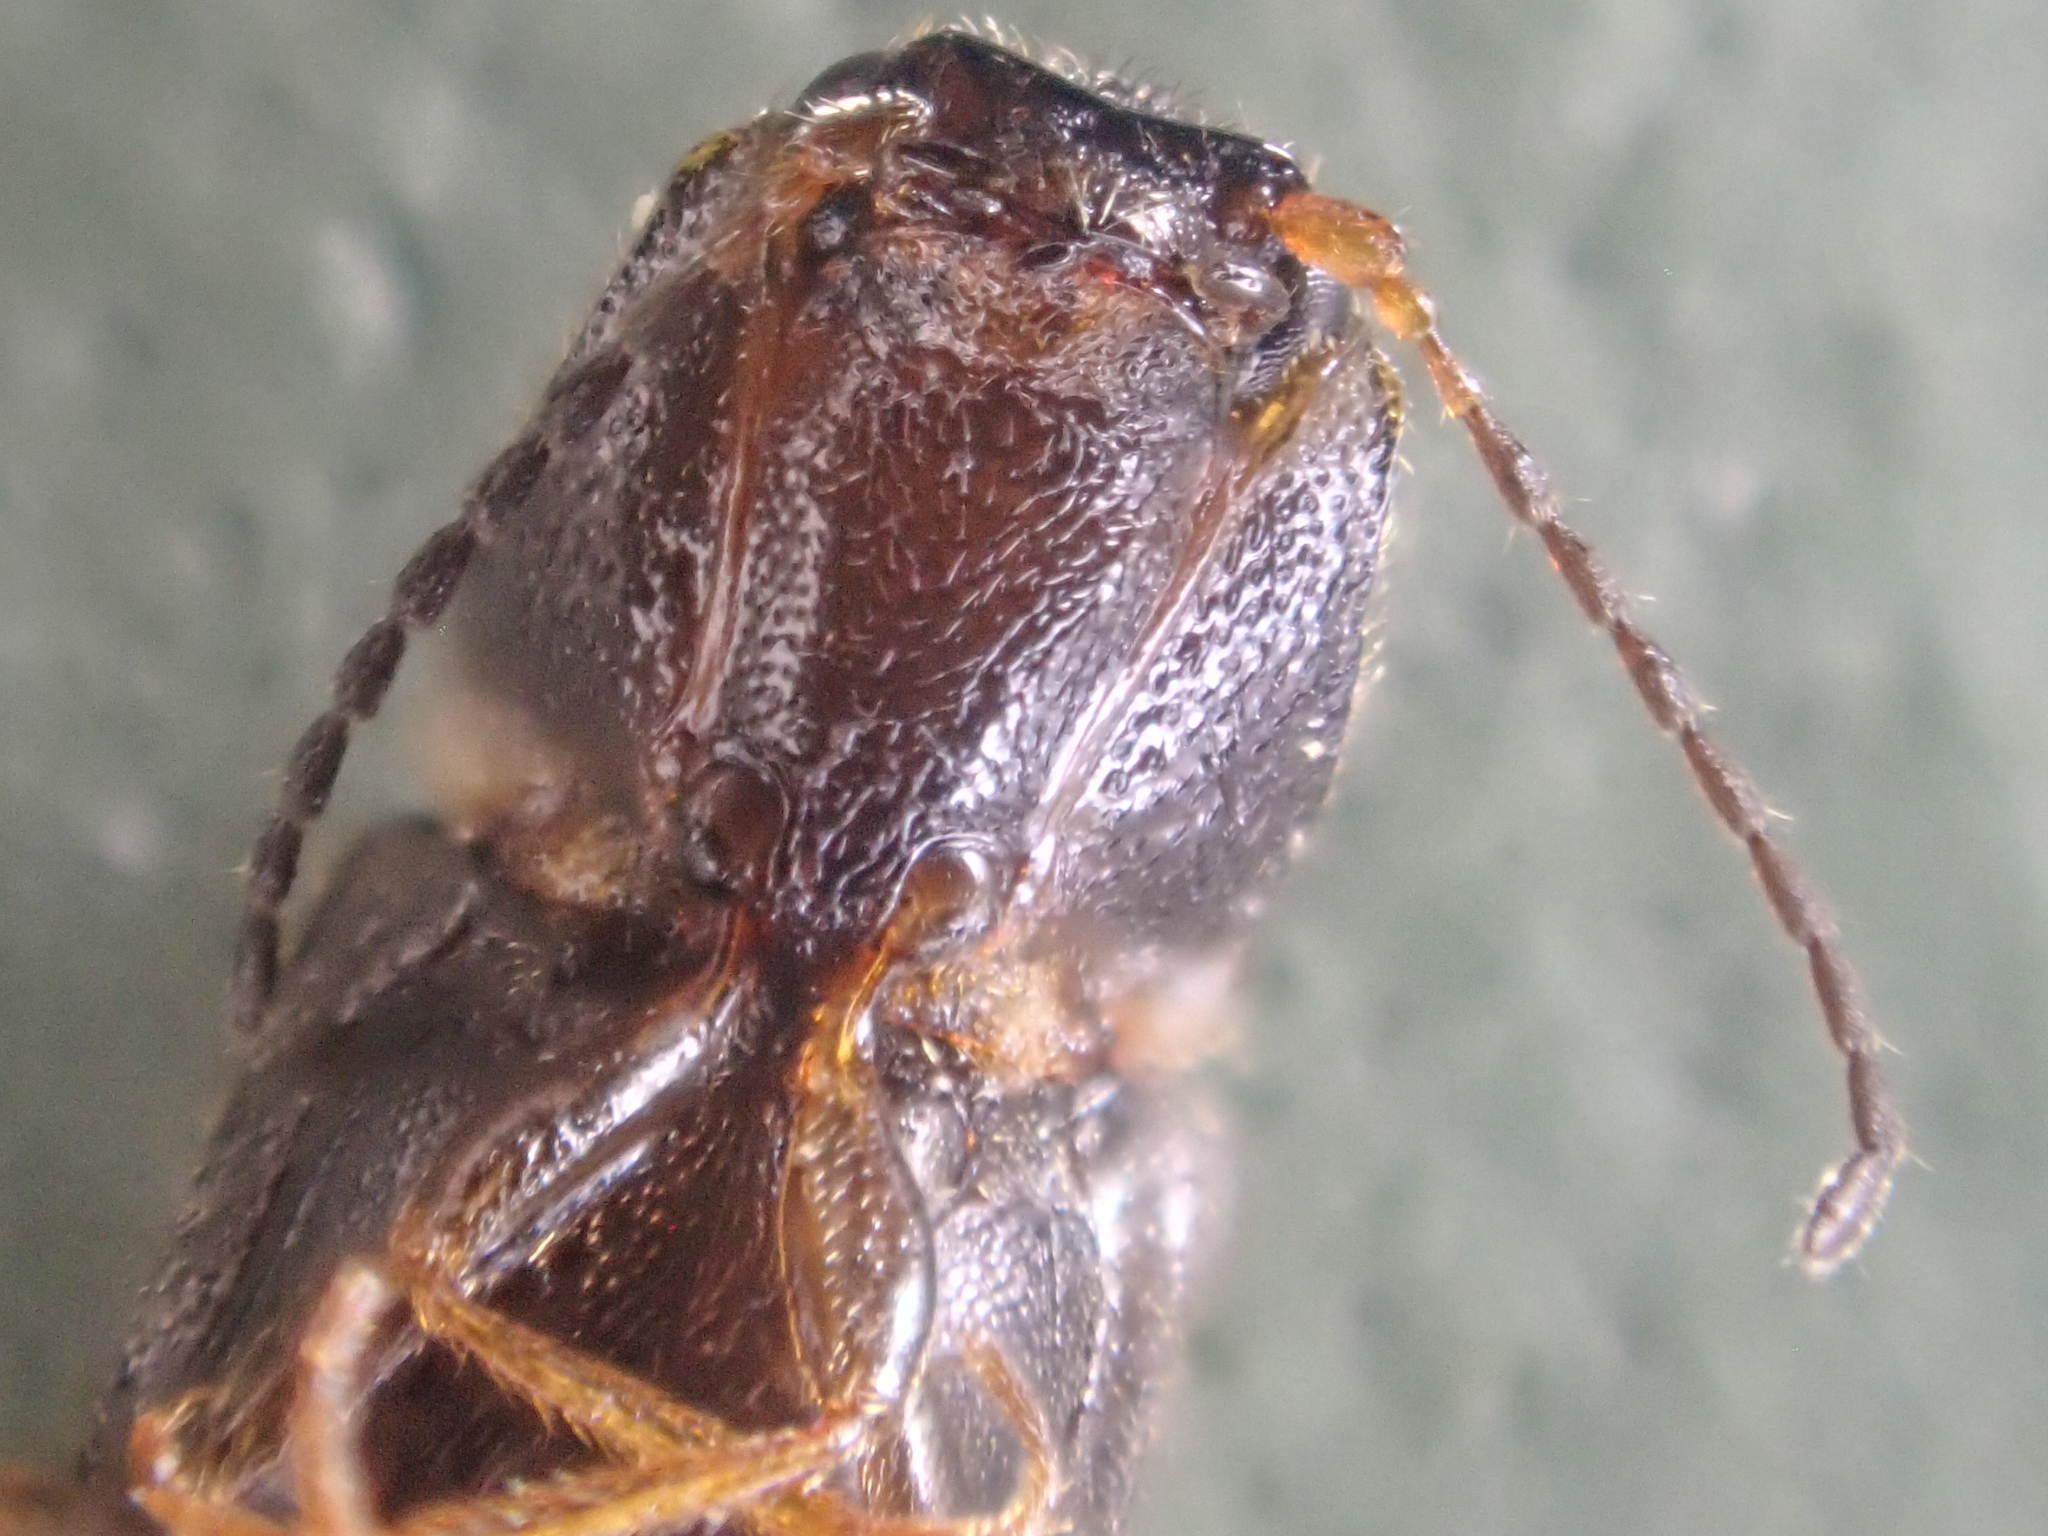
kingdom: Animalia
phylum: Arthropoda
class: Insecta
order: Coleoptera
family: Elateridae
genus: Limonius
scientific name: Limonius
